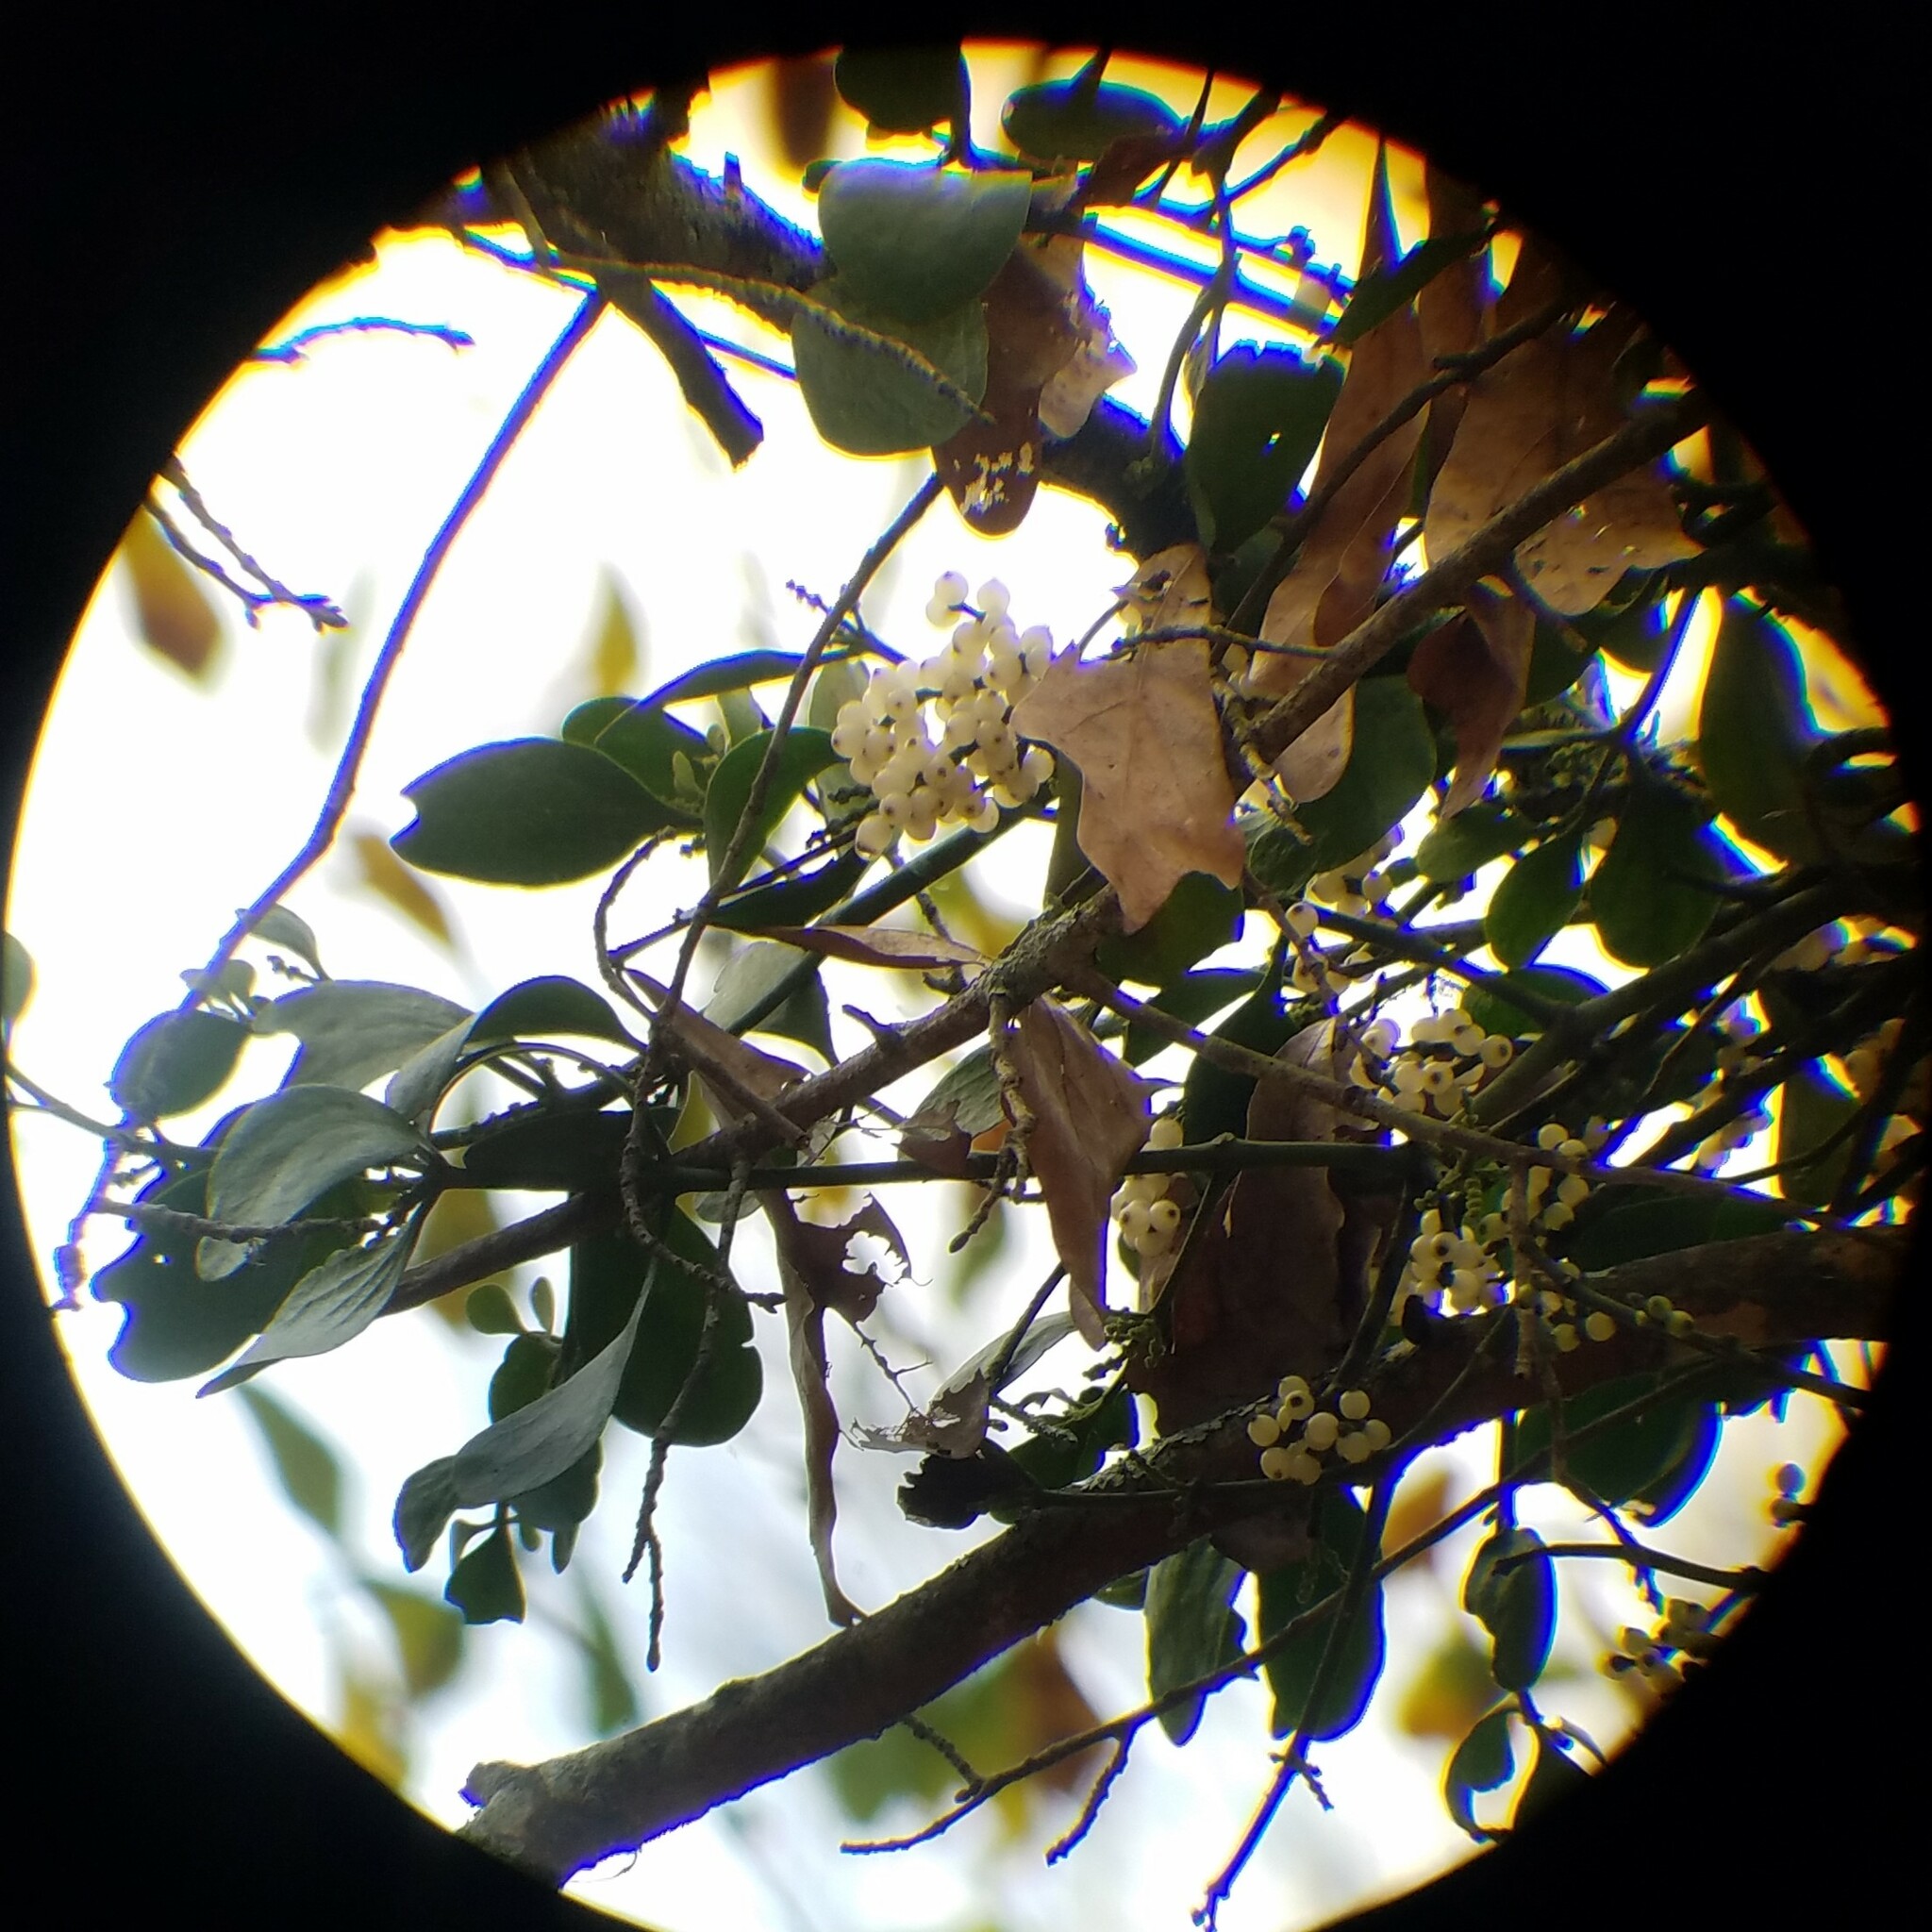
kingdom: Plantae
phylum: Tracheophyta
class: Magnoliopsida
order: Santalales
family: Viscaceae
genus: Phoradendron
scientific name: Phoradendron leucarpum
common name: Pacific mistletoe
